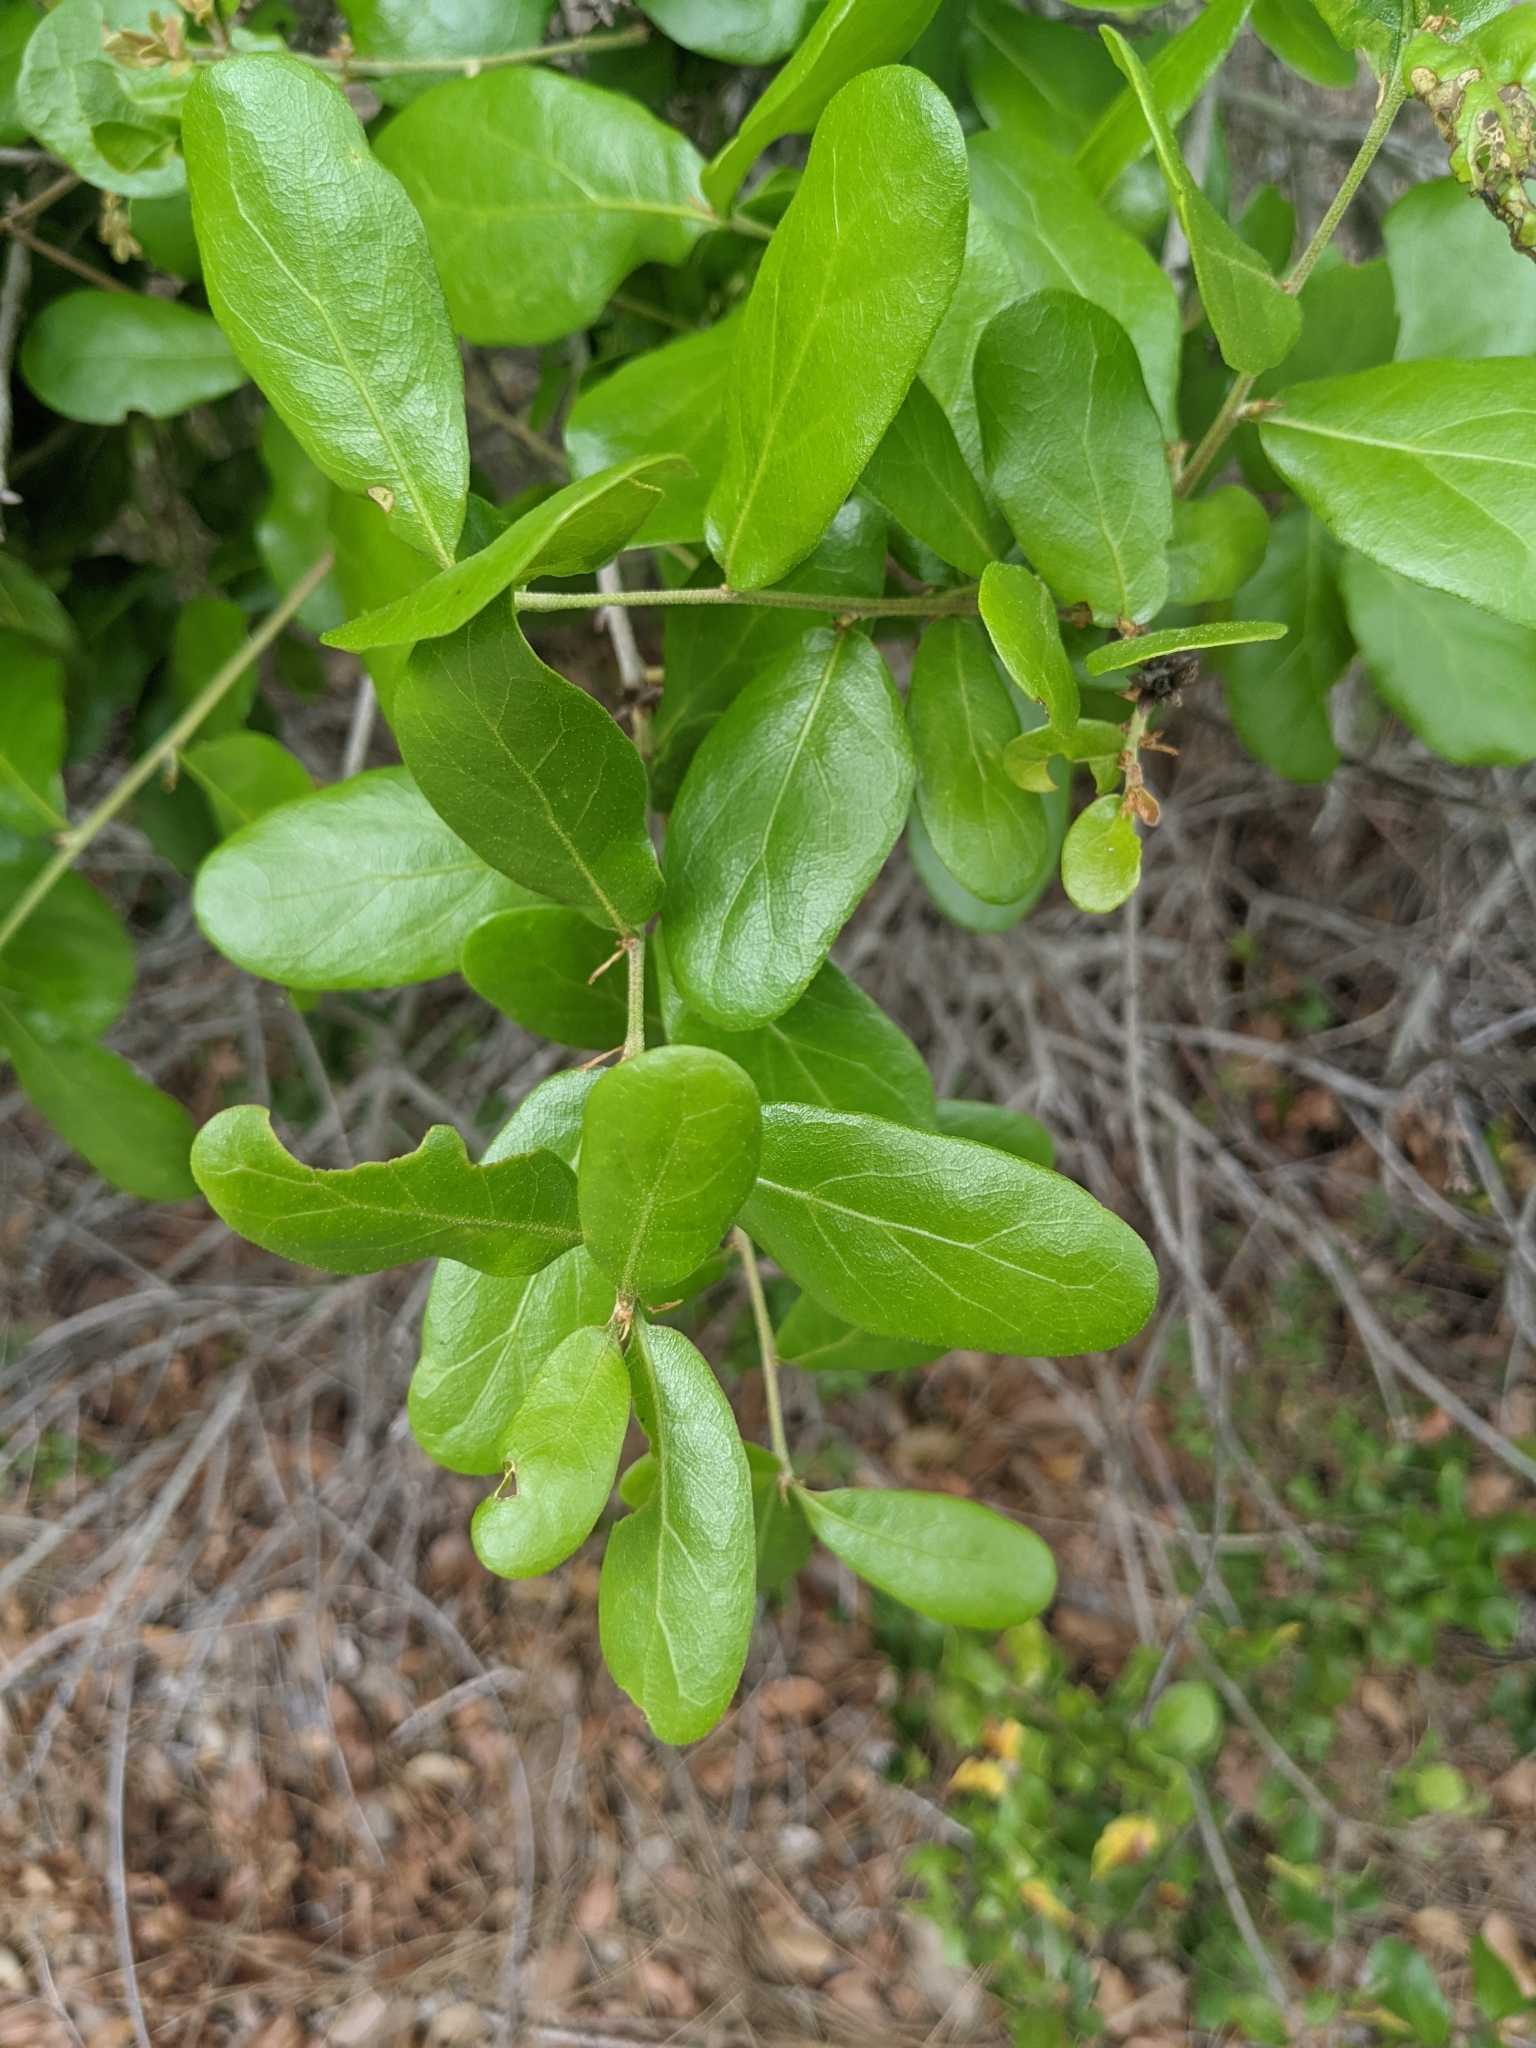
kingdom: Plantae
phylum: Tracheophyta
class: Magnoliopsida
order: Fagales
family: Fagaceae
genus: Quercus
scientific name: Quercus myrtifolia
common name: Myrtle oak
